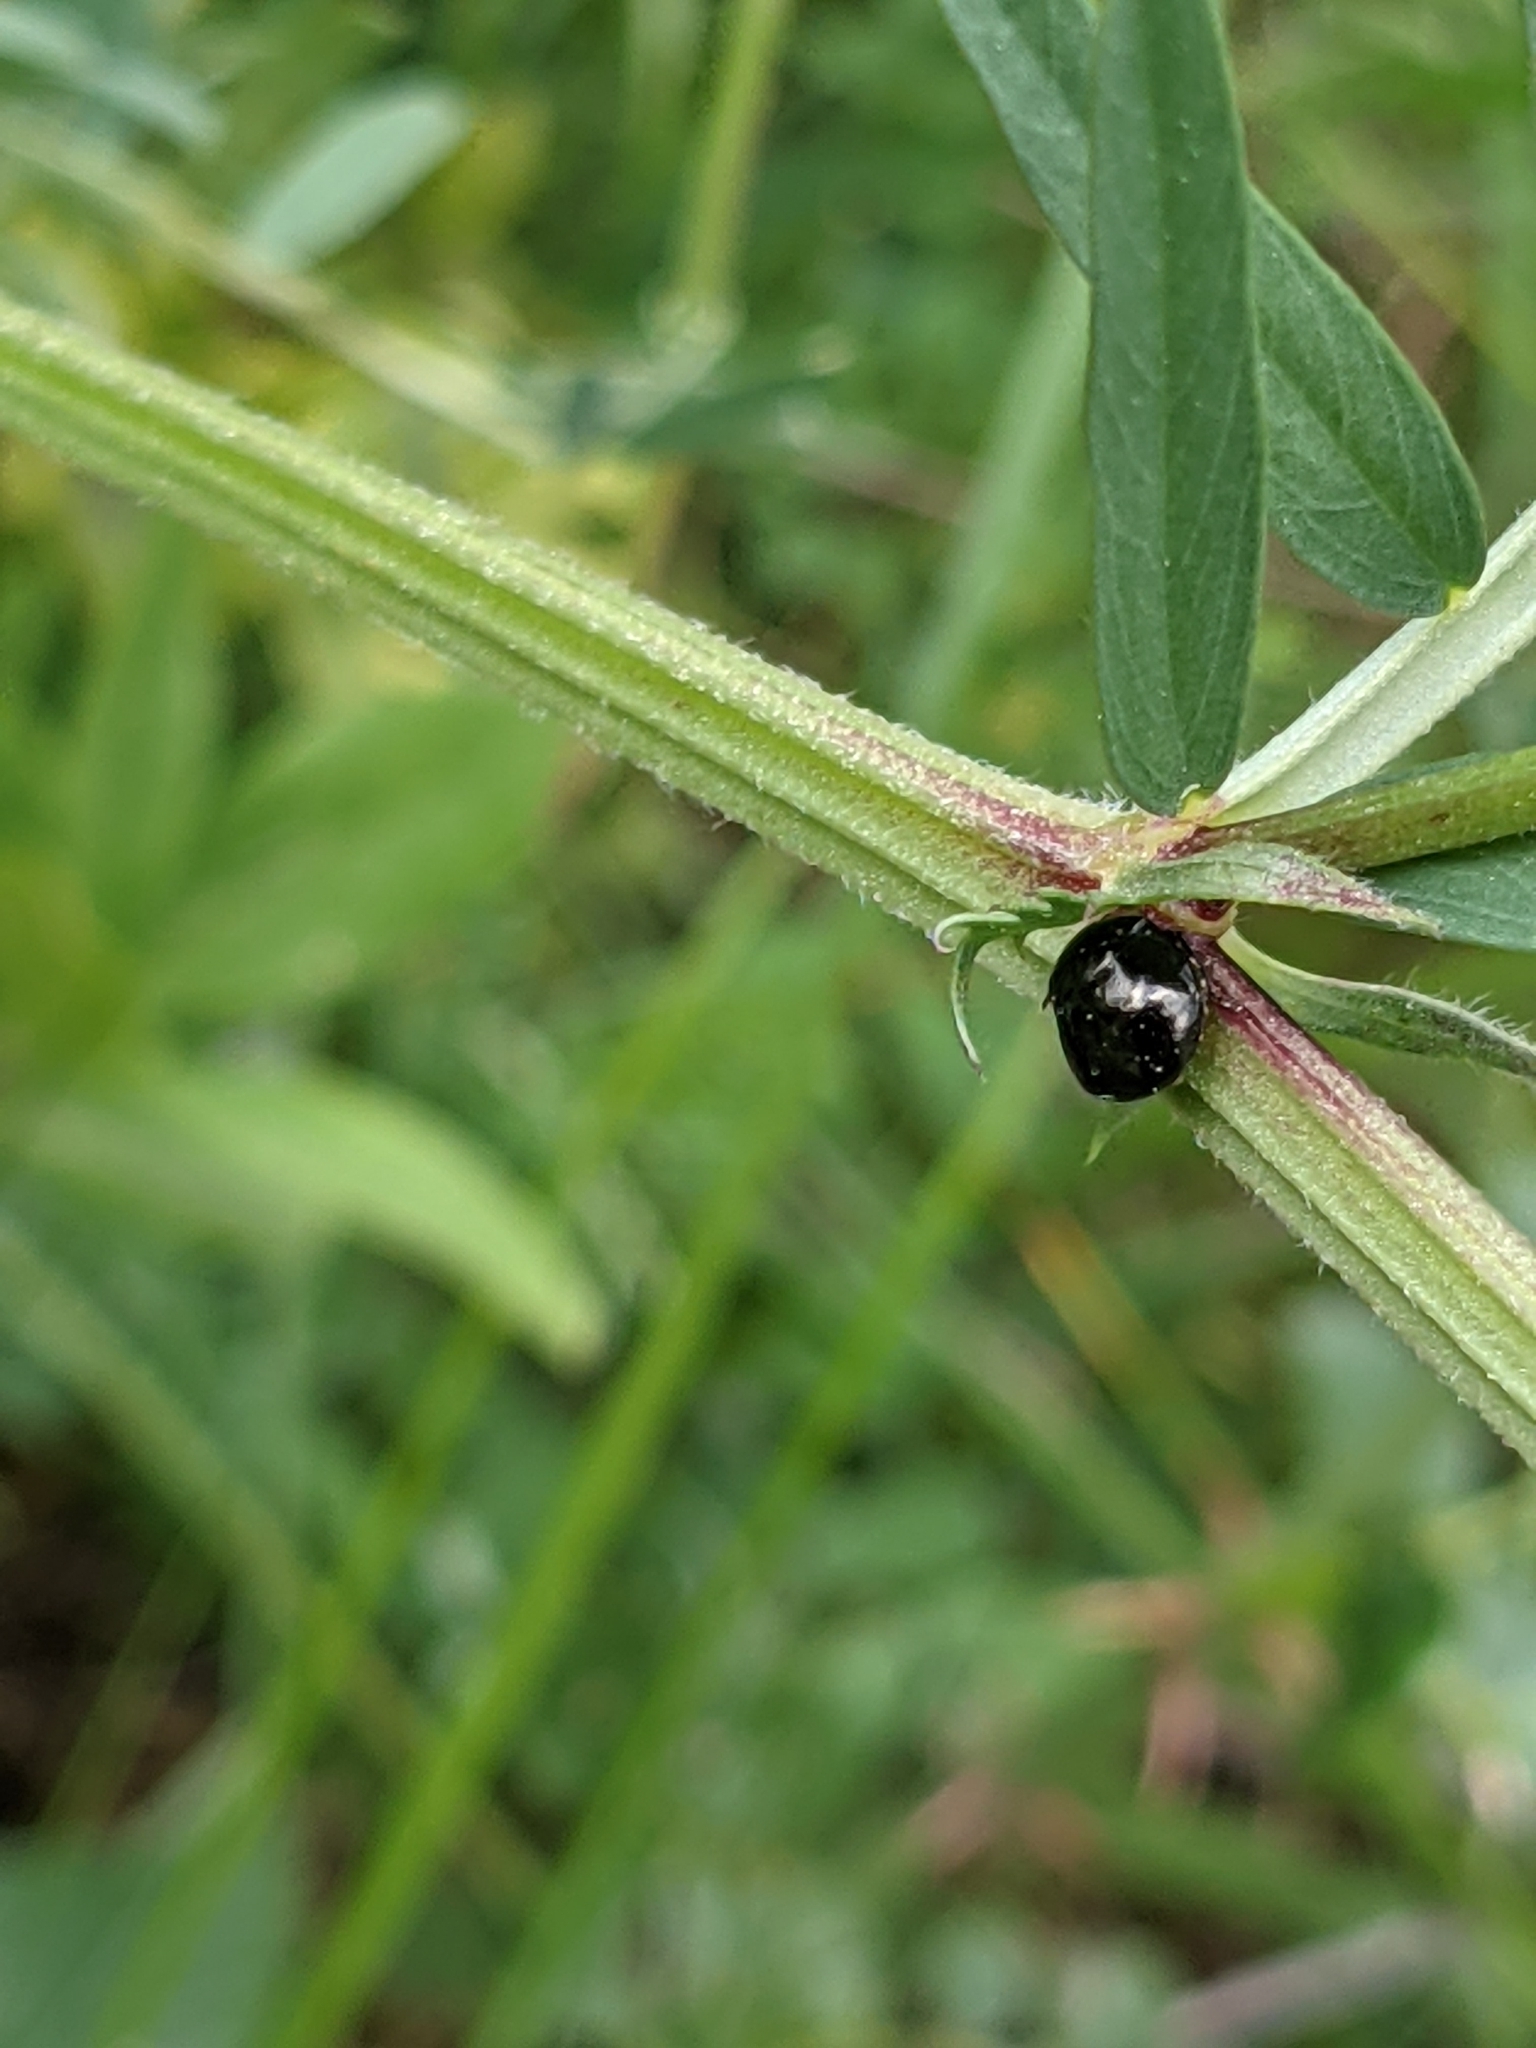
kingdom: Animalia
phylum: Arthropoda
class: Insecta
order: Hemiptera
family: Plataspidae
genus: Coptosoma
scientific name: Coptosoma scutellatum
